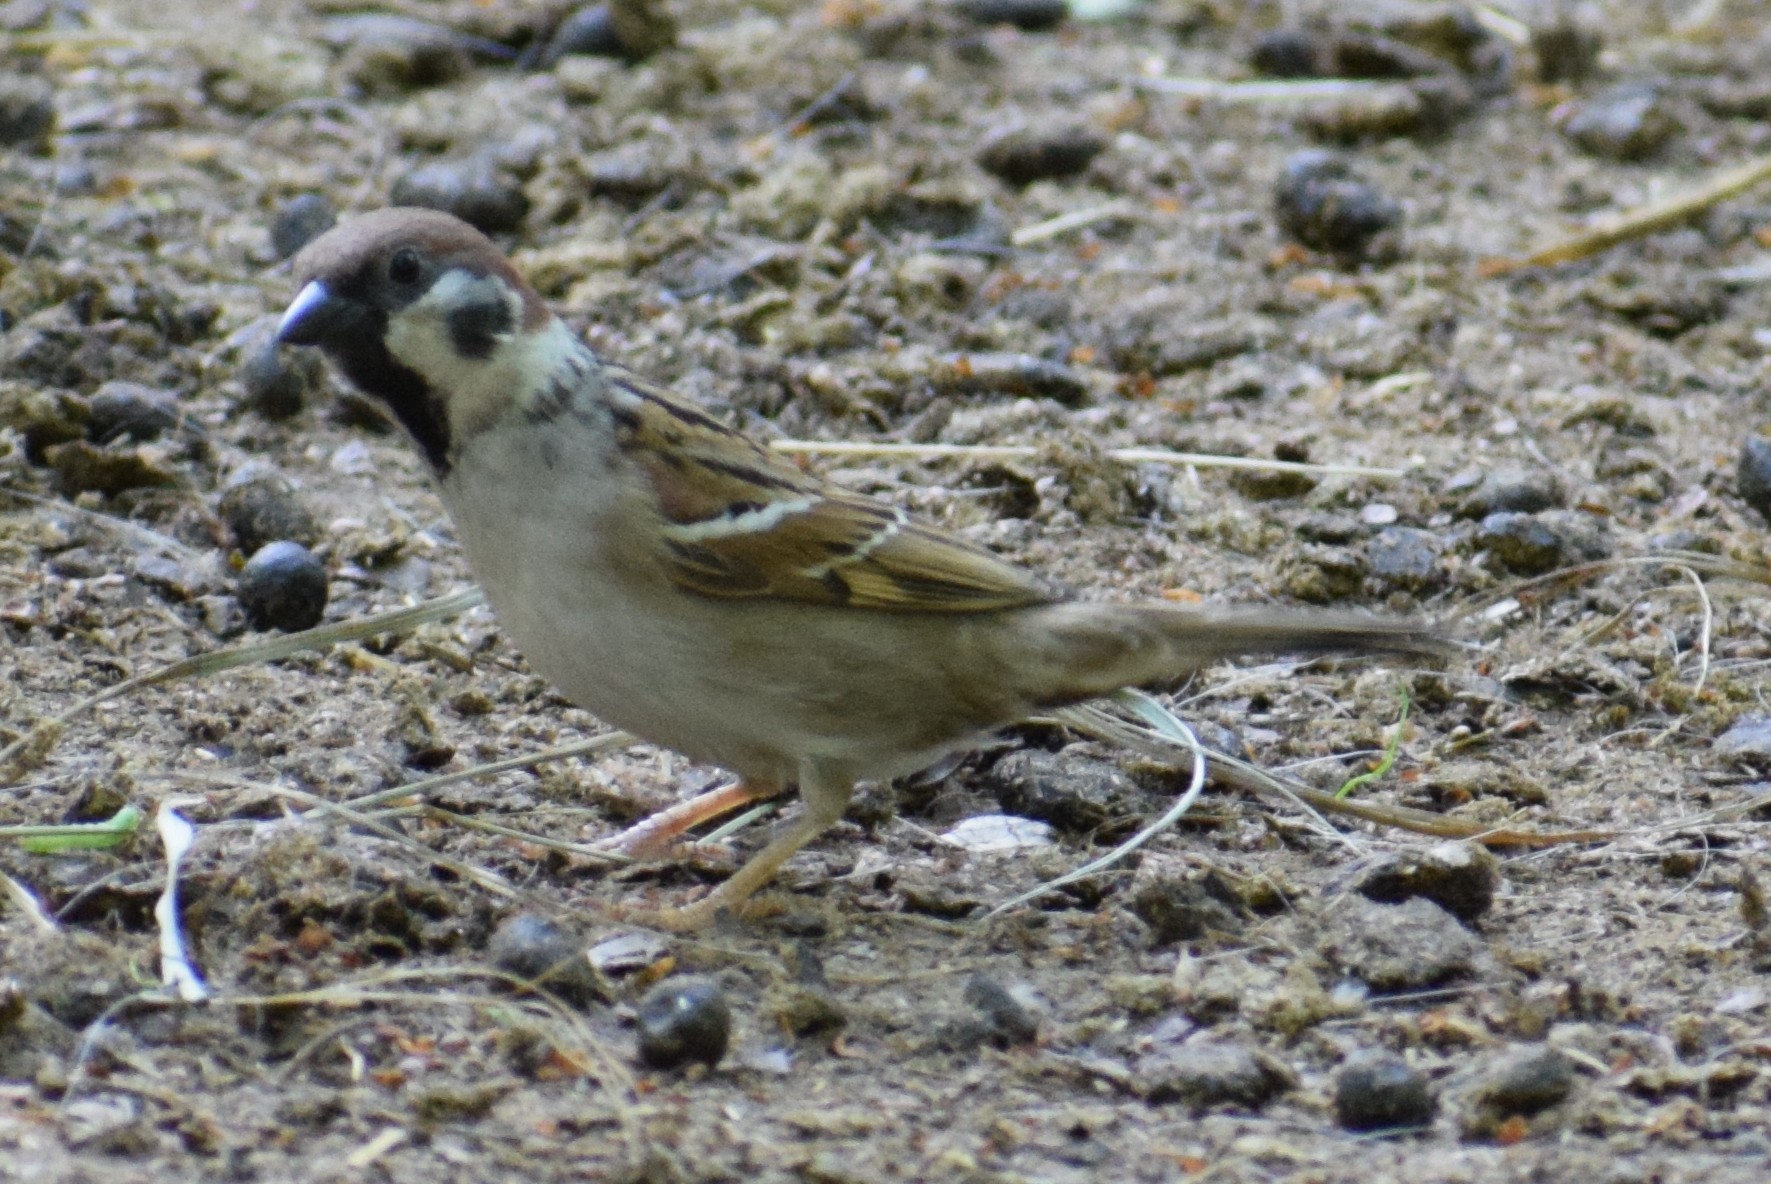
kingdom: Animalia
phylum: Chordata
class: Aves
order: Passeriformes
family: Passeridae
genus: Passer
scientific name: Passer montanus
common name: Eurasian tree sparrow
